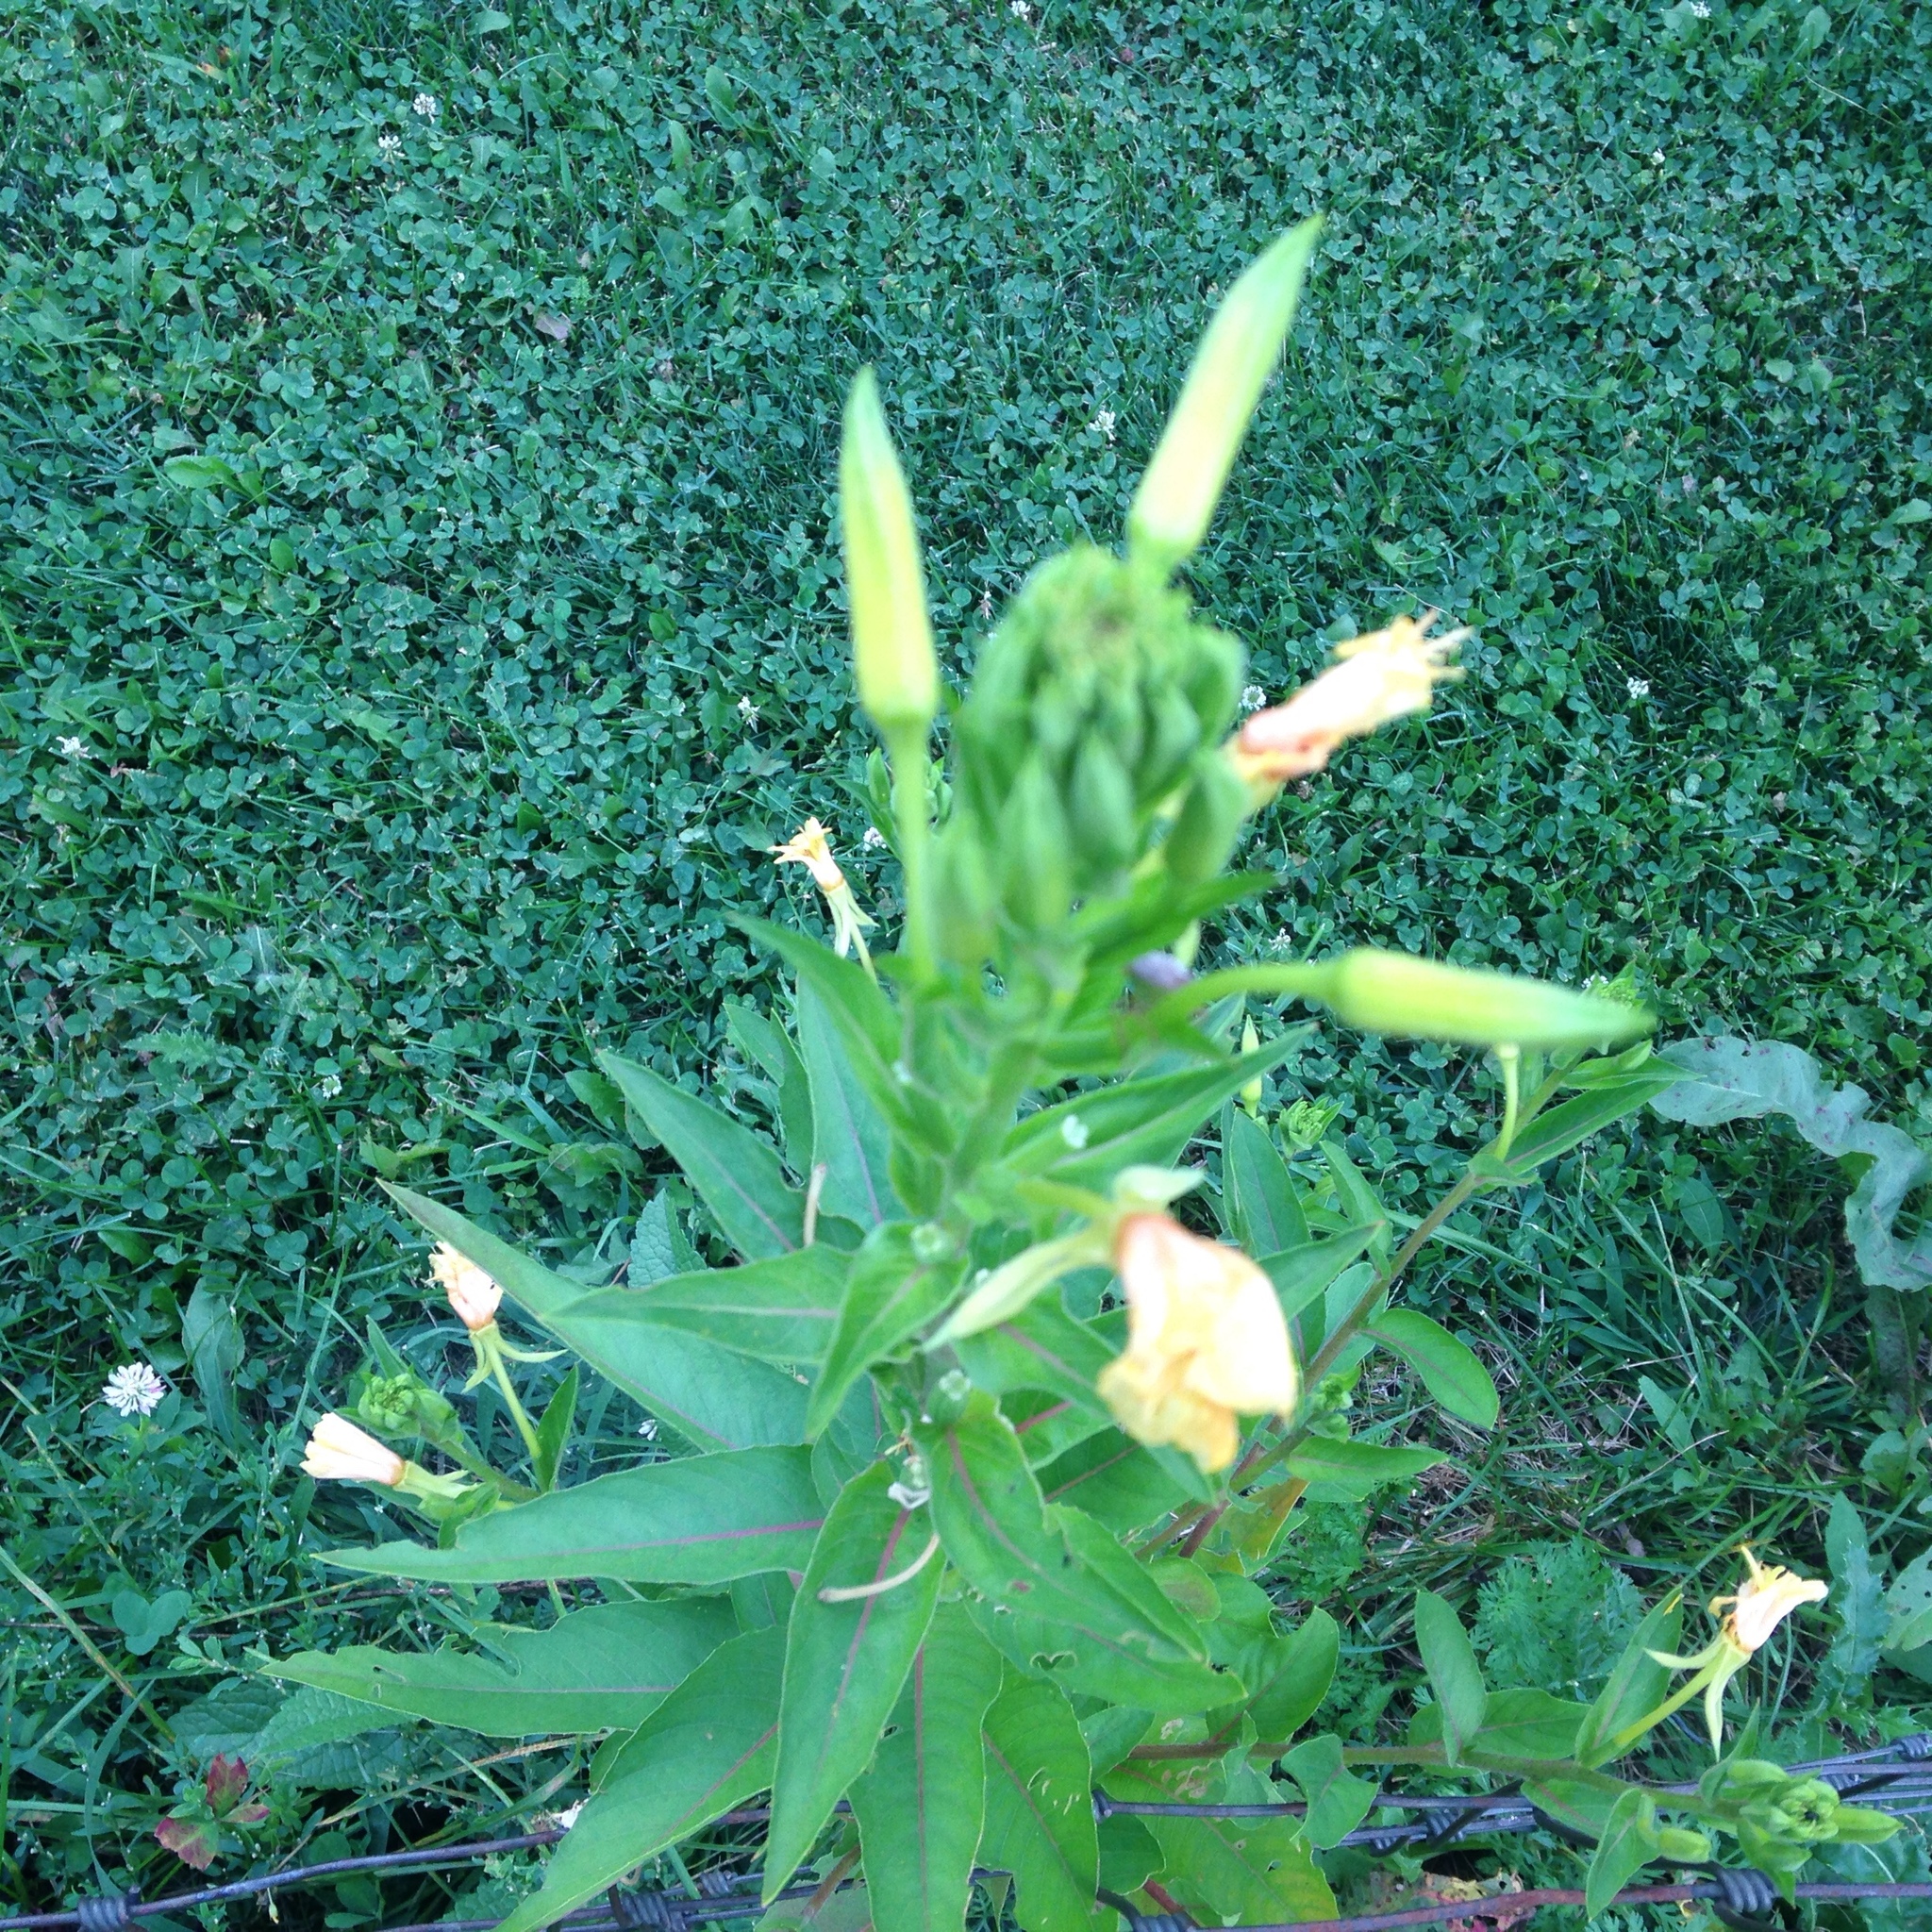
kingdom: Plantae
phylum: Tracheophyta
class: Magnoliopsida
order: Myrtales
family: Onagraceae
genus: Oenothera
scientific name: Oenothera biennis
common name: Common evening-primrose
